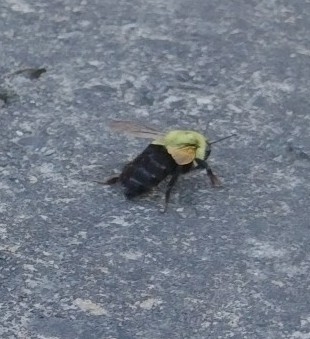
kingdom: Animalia
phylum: Arthropoda
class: Insecta
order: Hymenoptera
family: Apidae
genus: Bombus
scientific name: Bombus impatiens
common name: Common eastern bumble bee
